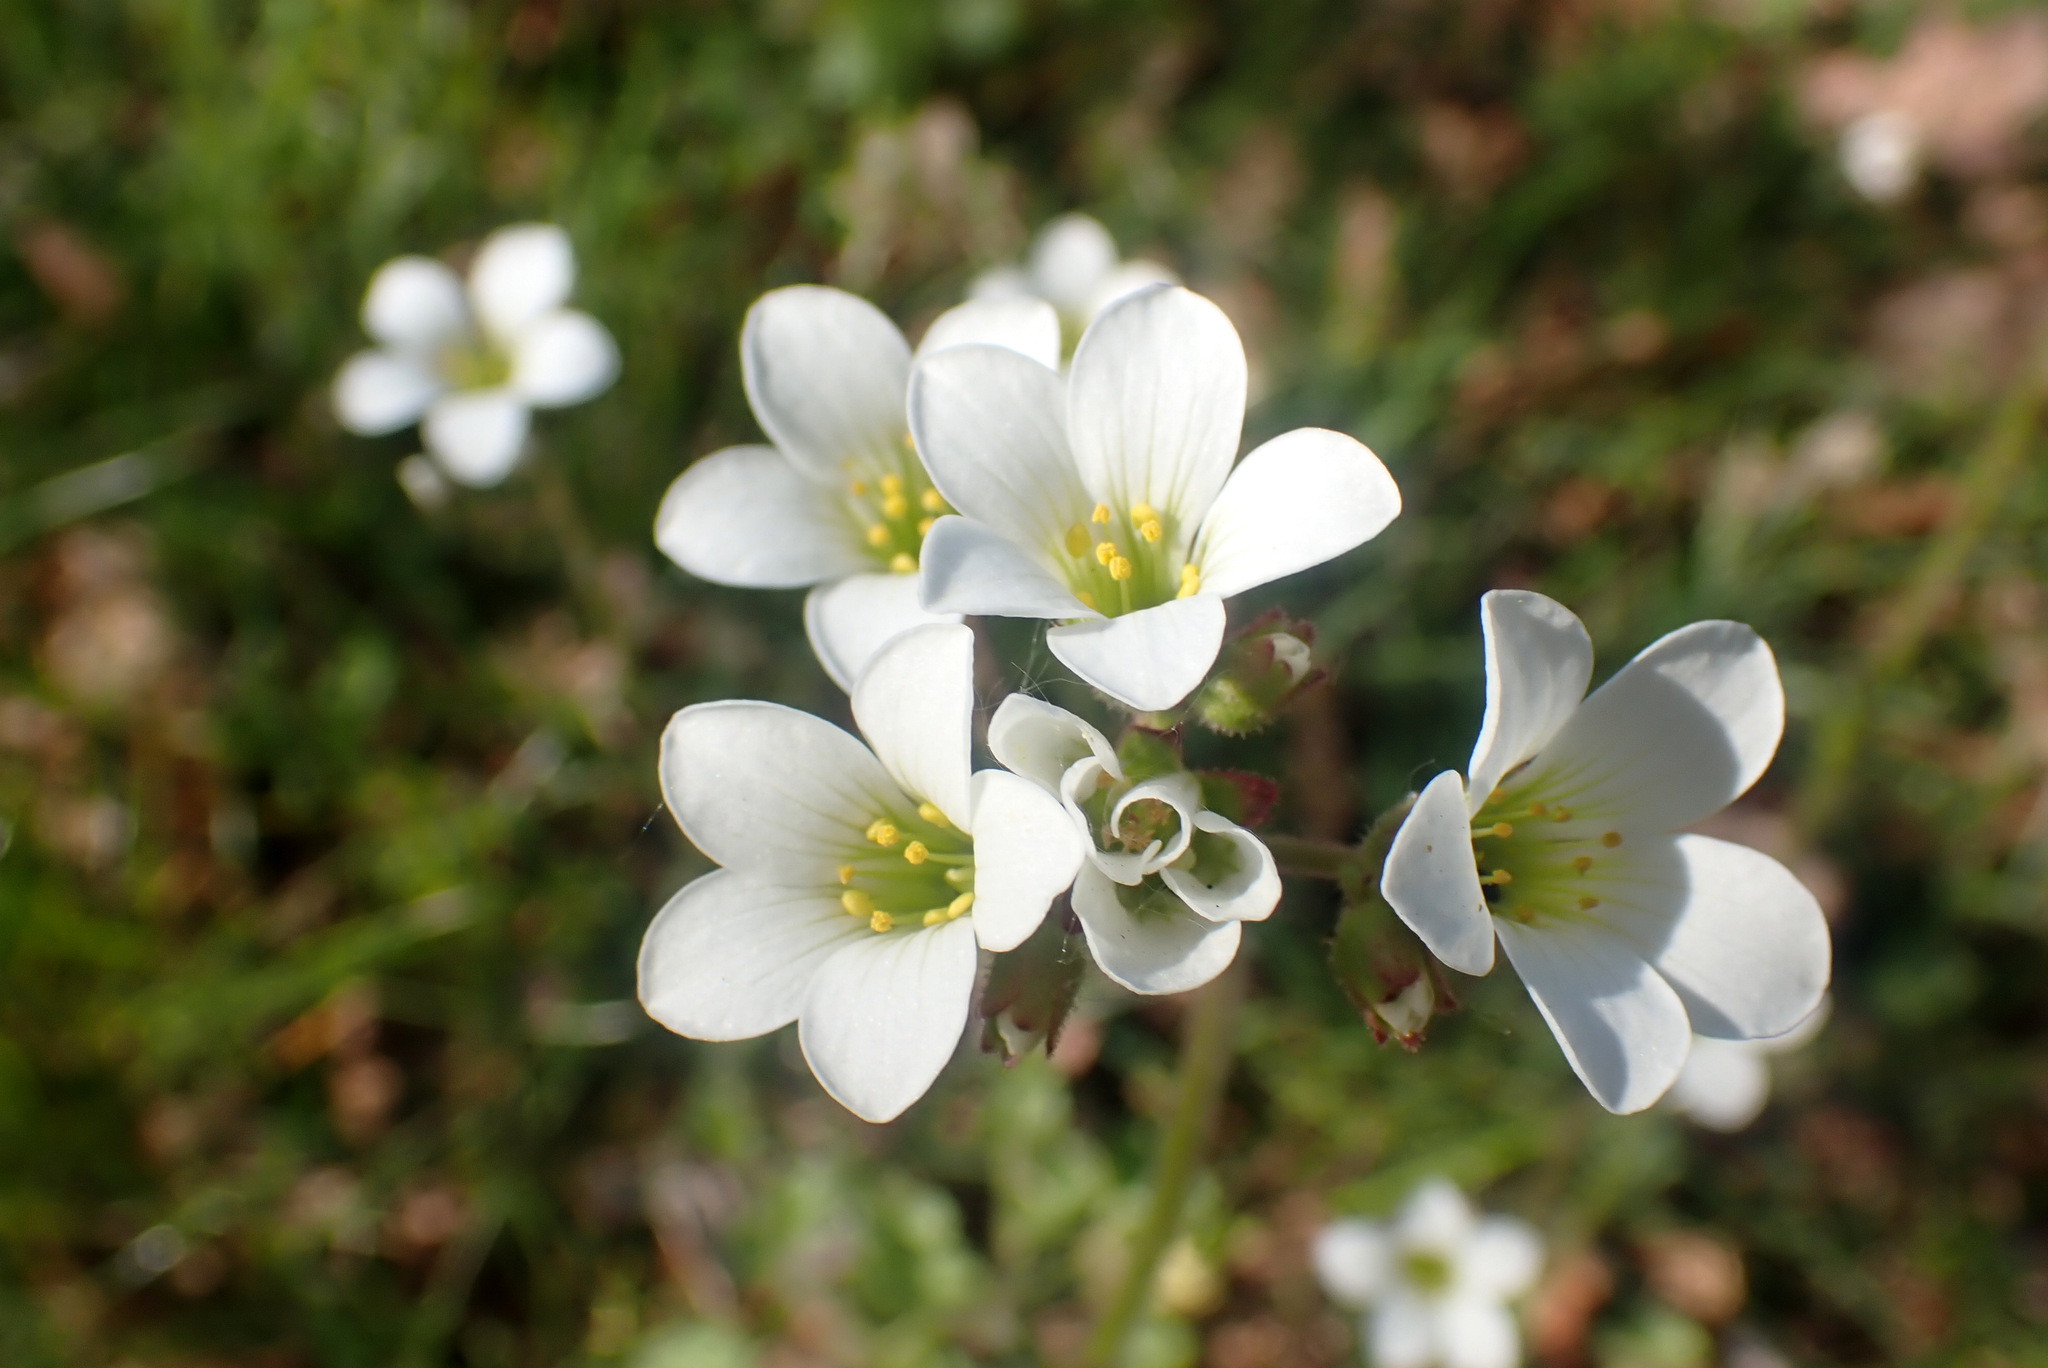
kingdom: Plantae
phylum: Tracheophyta
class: Magnoliopsida
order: Saxifragales
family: Saxifragaceae
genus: Saxifraga
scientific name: Saxifraga granulata
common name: Meadow saxifrage
